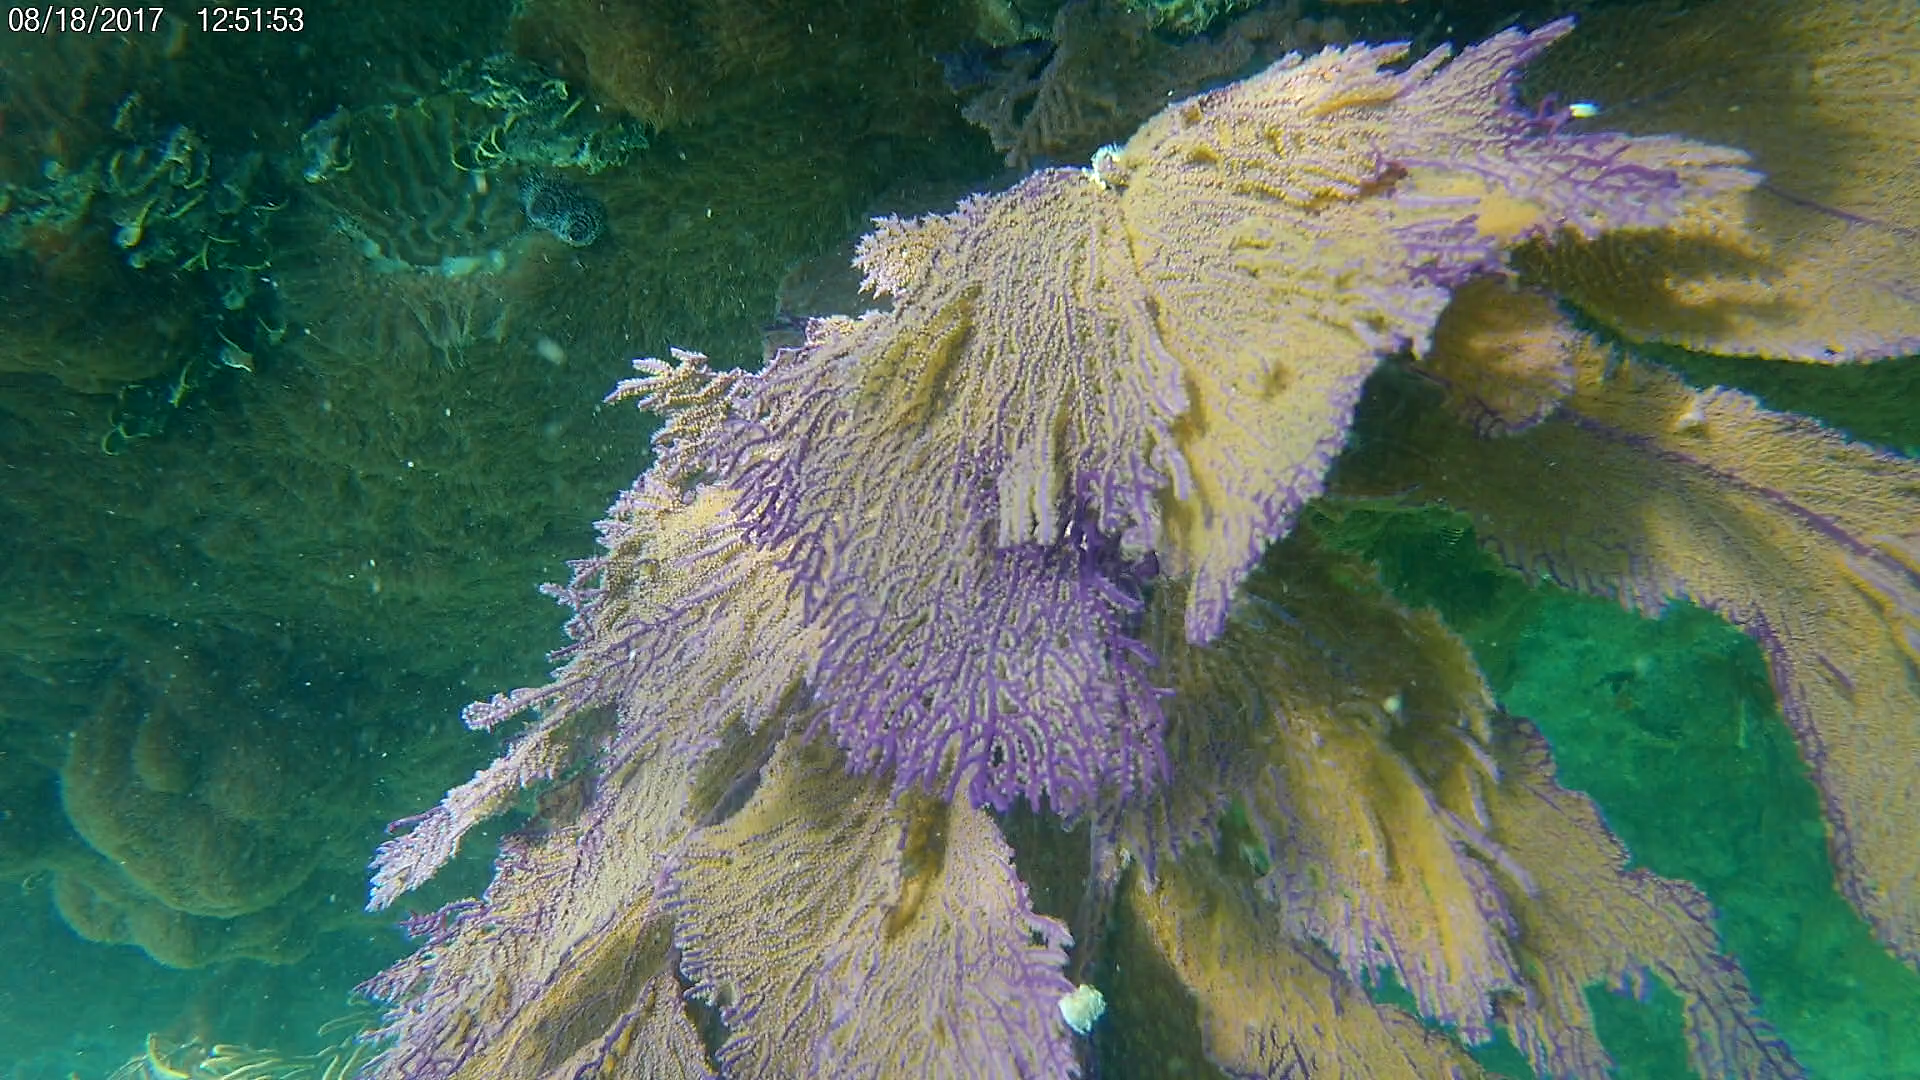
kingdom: Animalia
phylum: Cnidaria
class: Anthozoa
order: Malacalcyonacea
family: Gorgoniidae
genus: Gorgonia
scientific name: Gorgonia ventalina
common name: Common sea fan
